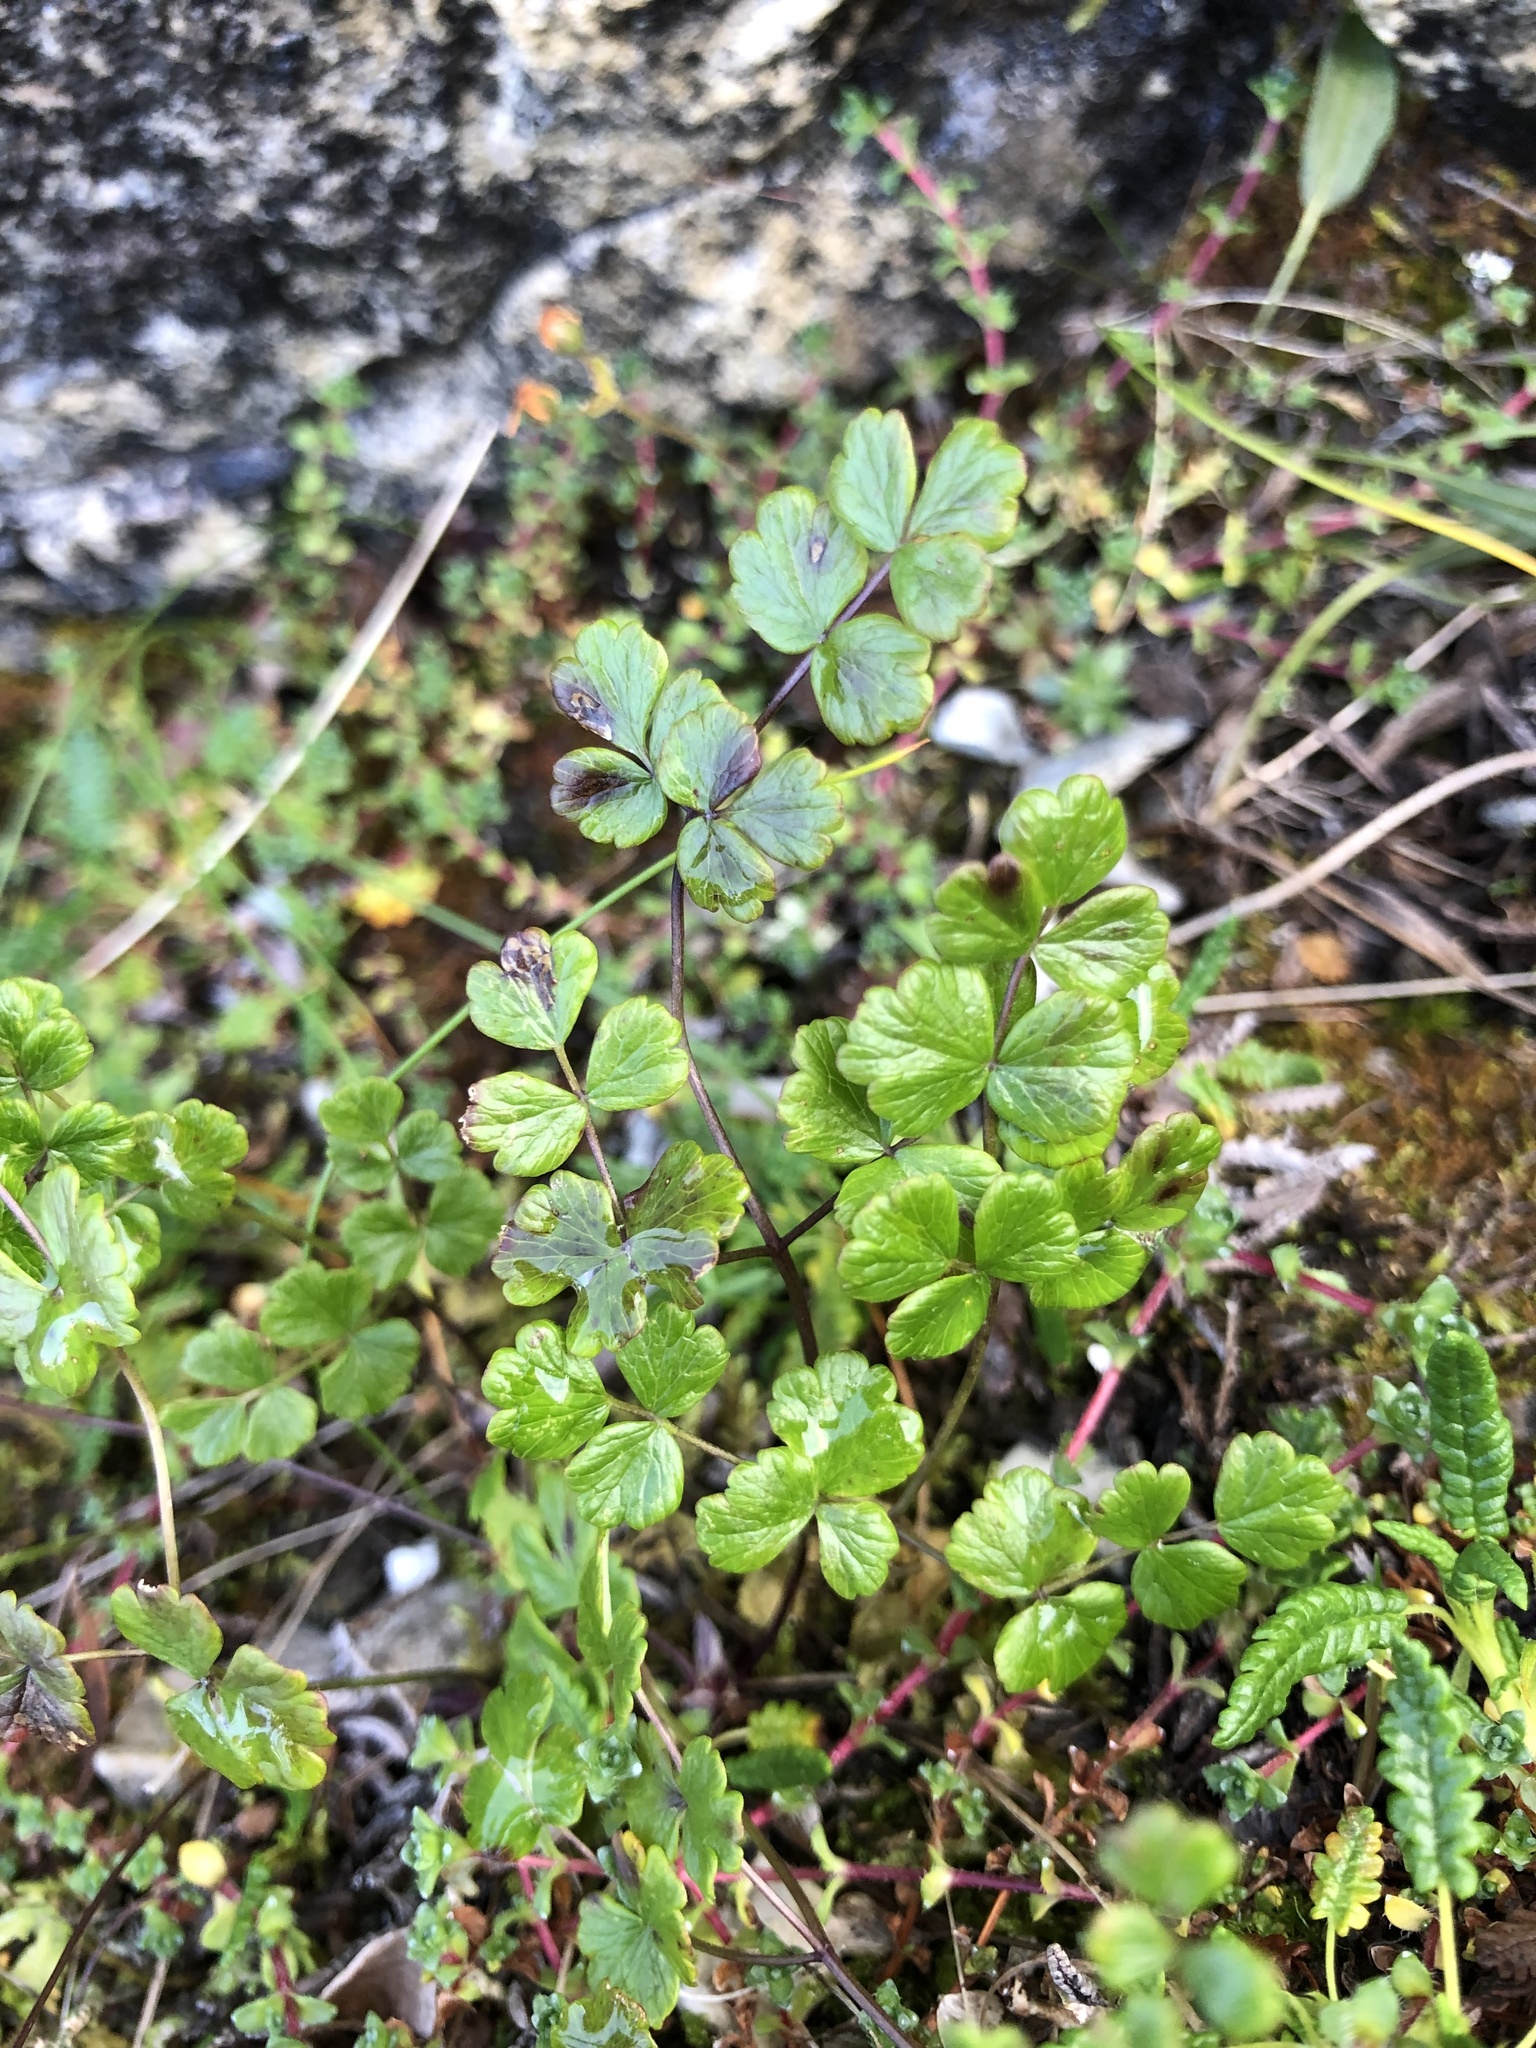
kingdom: Plantae
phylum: Tracheophyta
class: Magnoliopsida
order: Ranunculales
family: Ranunculaceae
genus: Thalictrum
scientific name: Thalictrum alpinum
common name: Alpine meadow-rue
